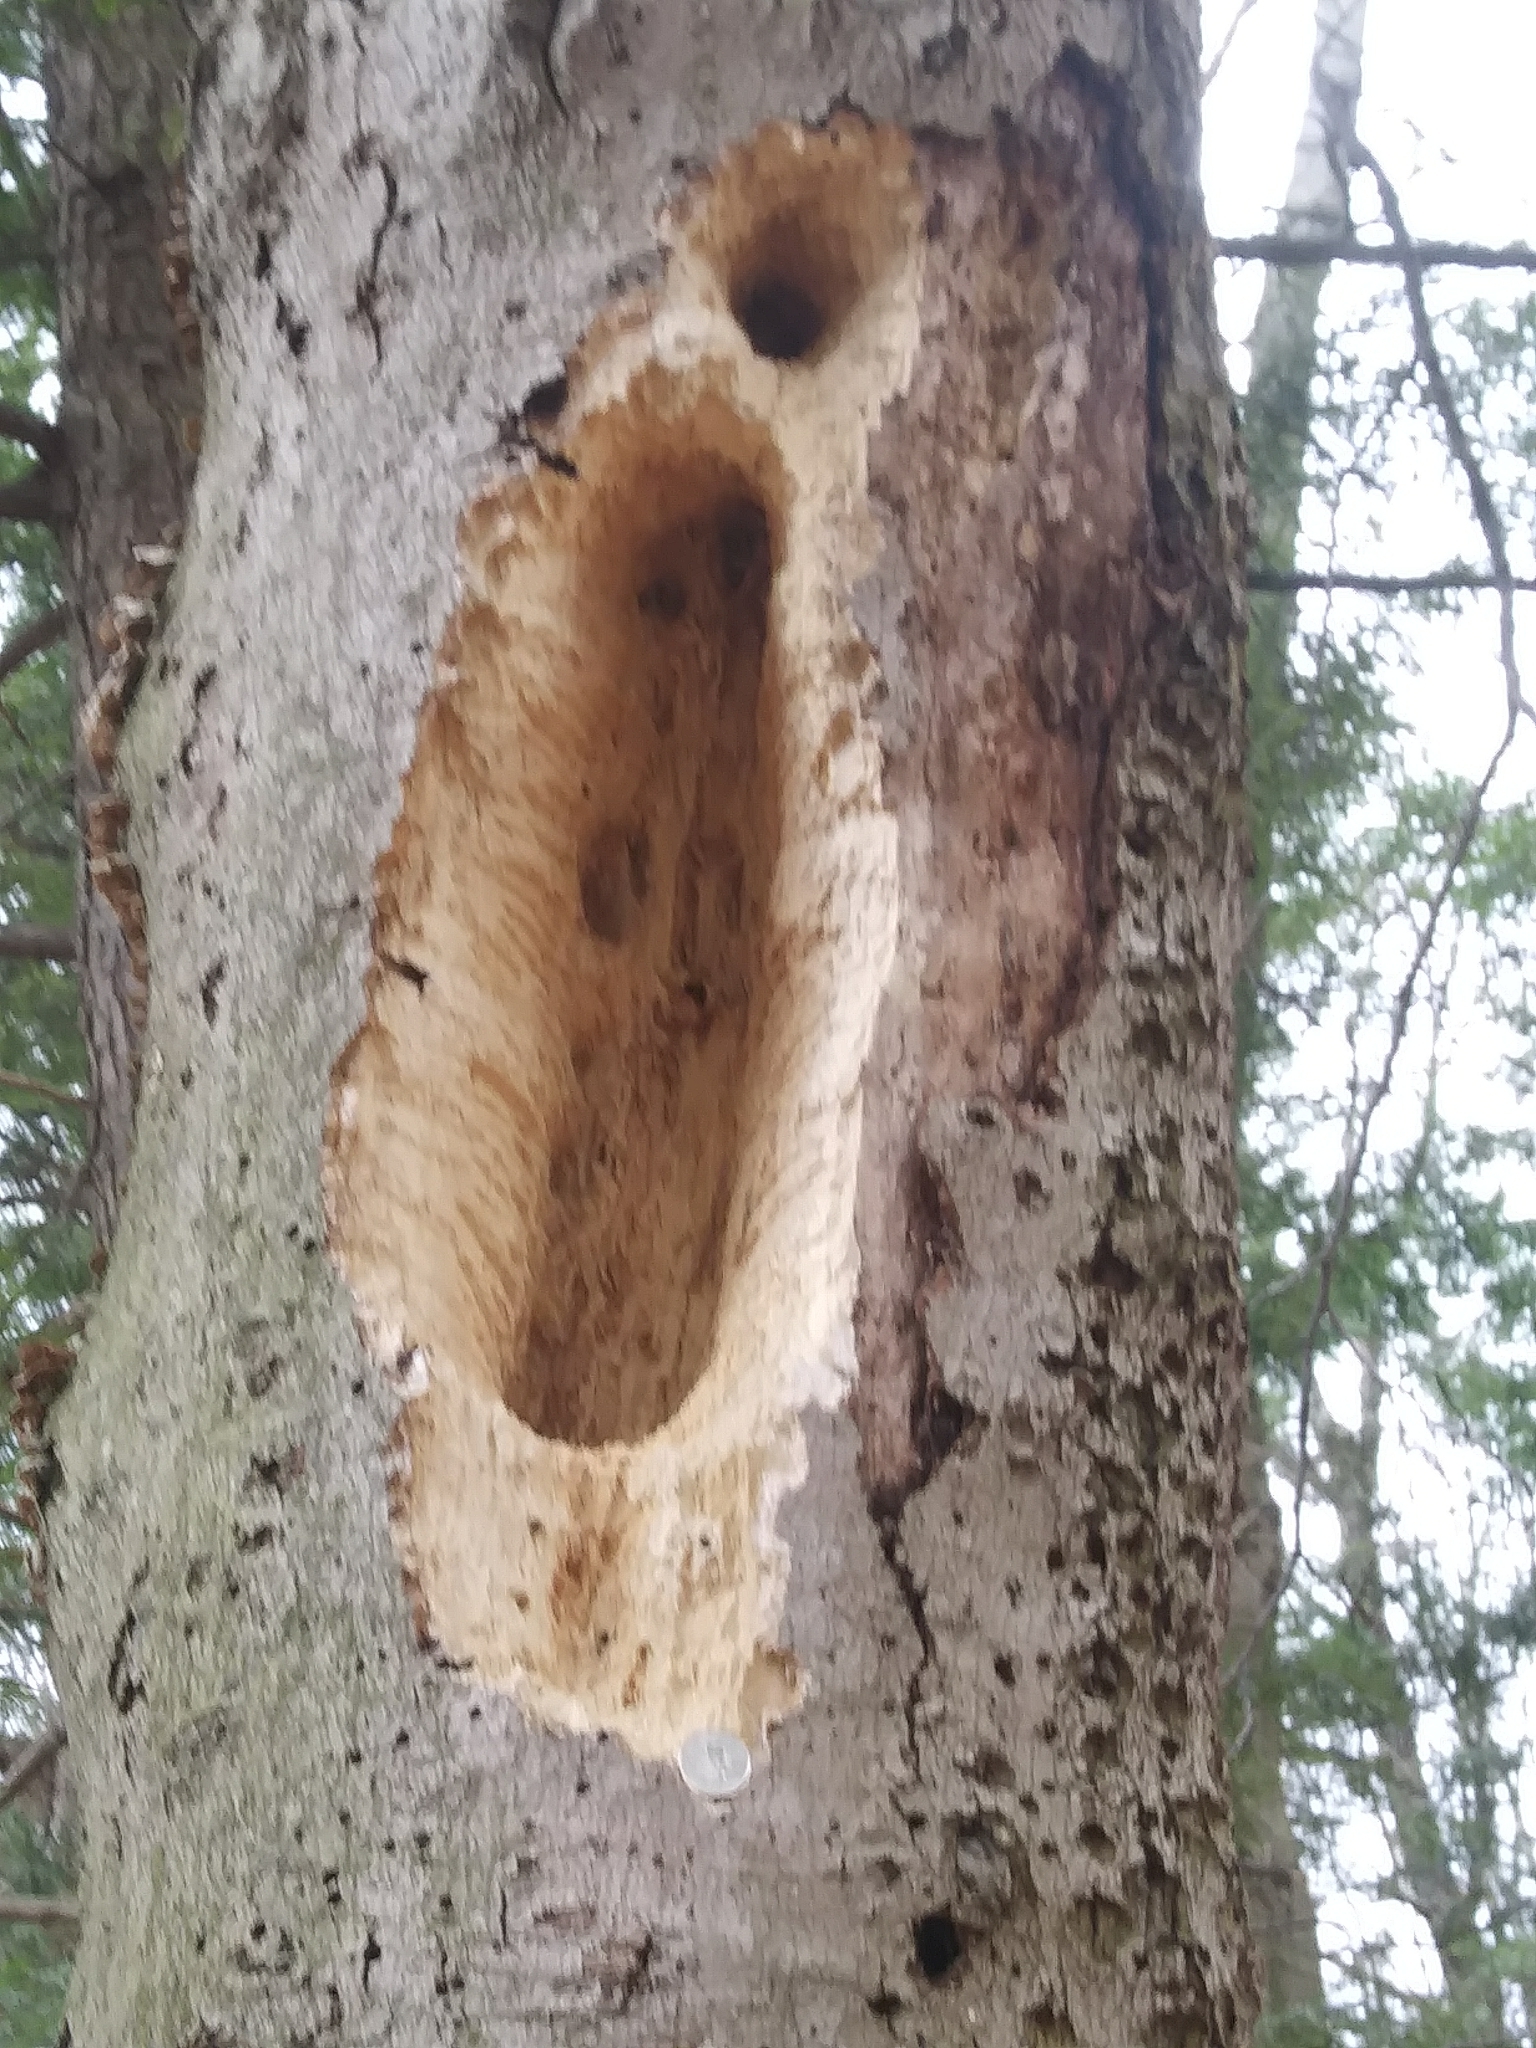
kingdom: Animalia
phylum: Chordata
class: Aves
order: Piciformes
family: Picidae
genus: Dryocopus
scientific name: Dryocopus pileatus
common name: Pileated woodpecker
